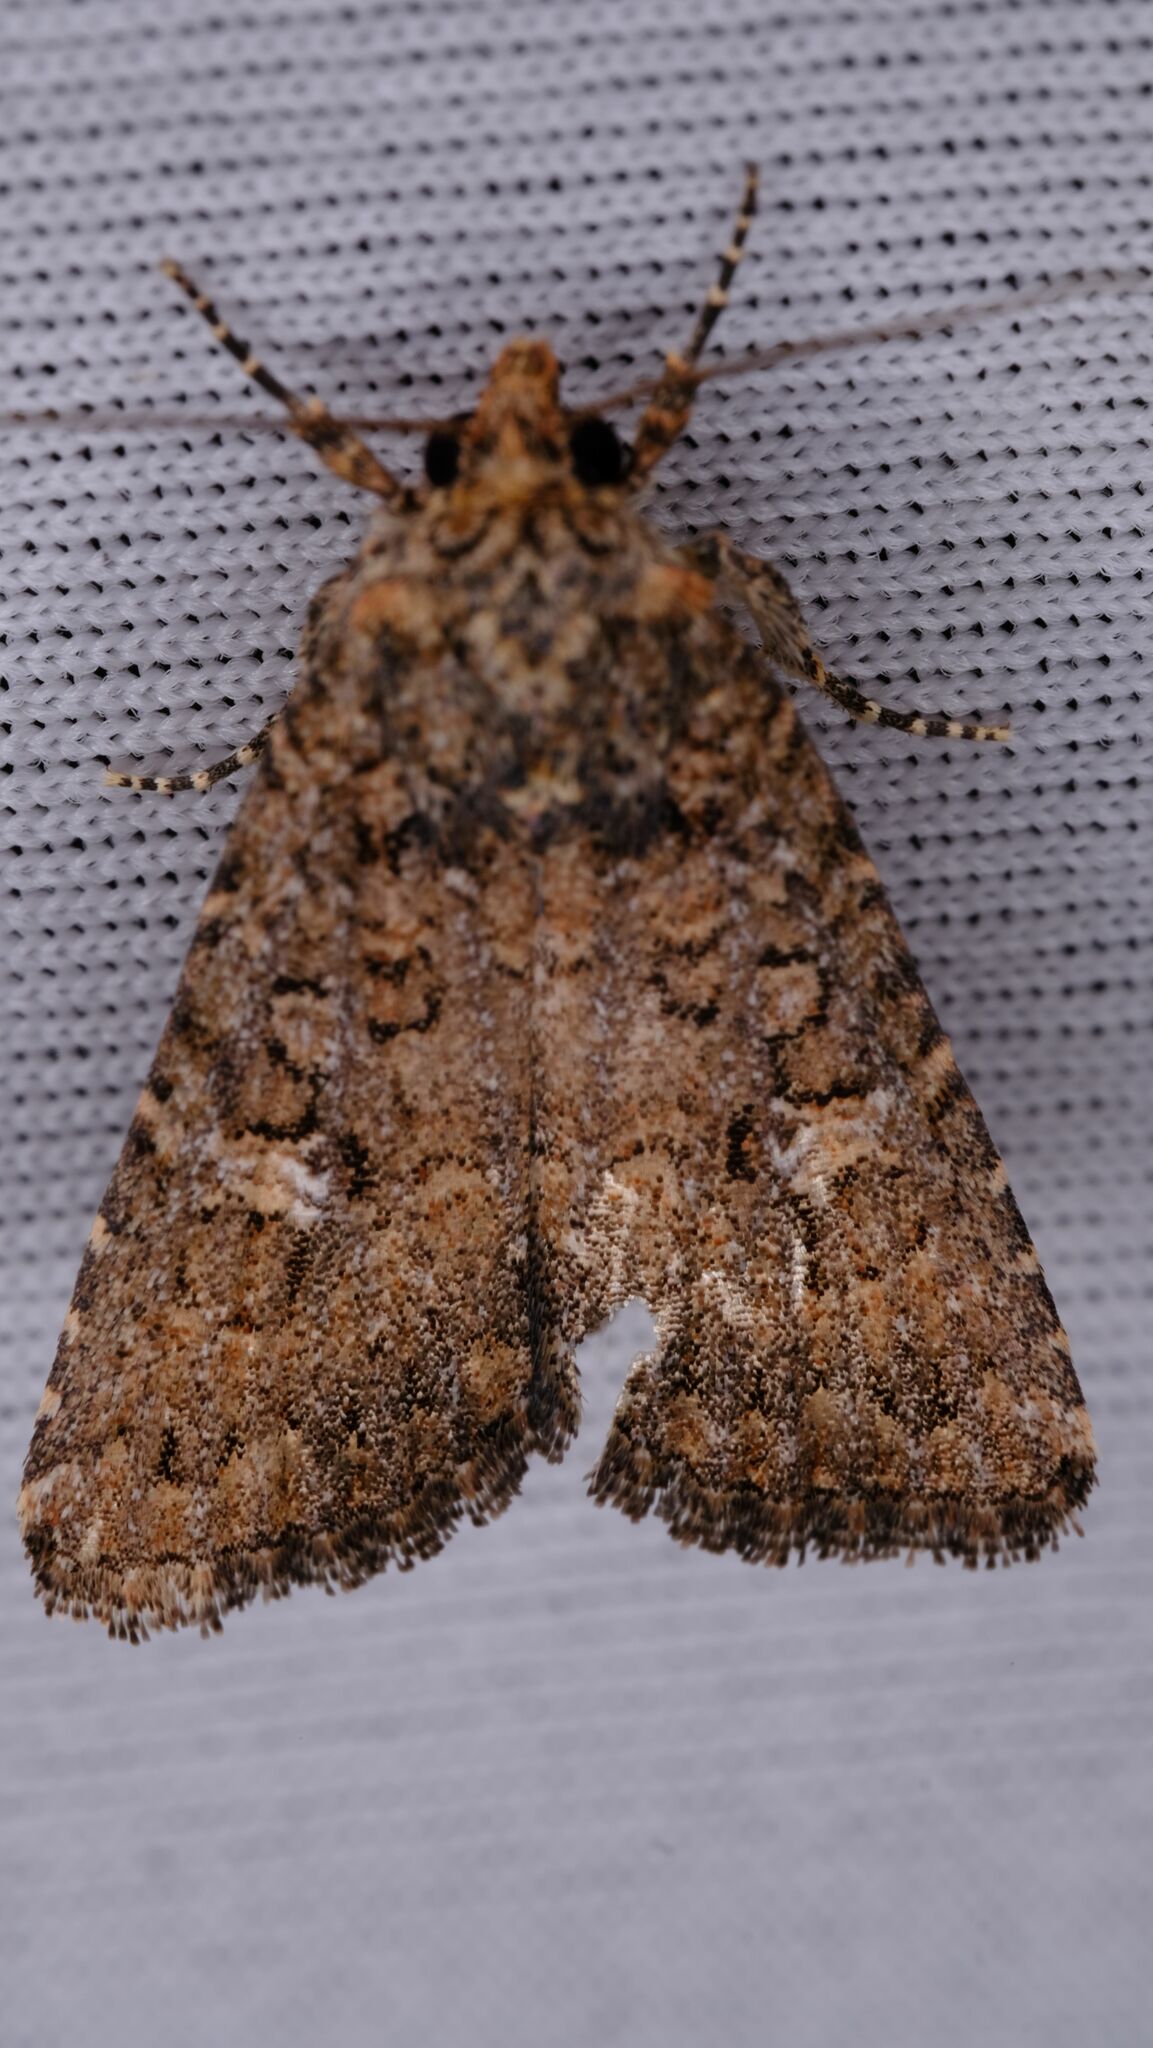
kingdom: Animalia
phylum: Arthropoda
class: Insecta
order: Lepidoptera
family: Noctuidae
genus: Hypoperigea
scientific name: Hypoperigea tonsa
